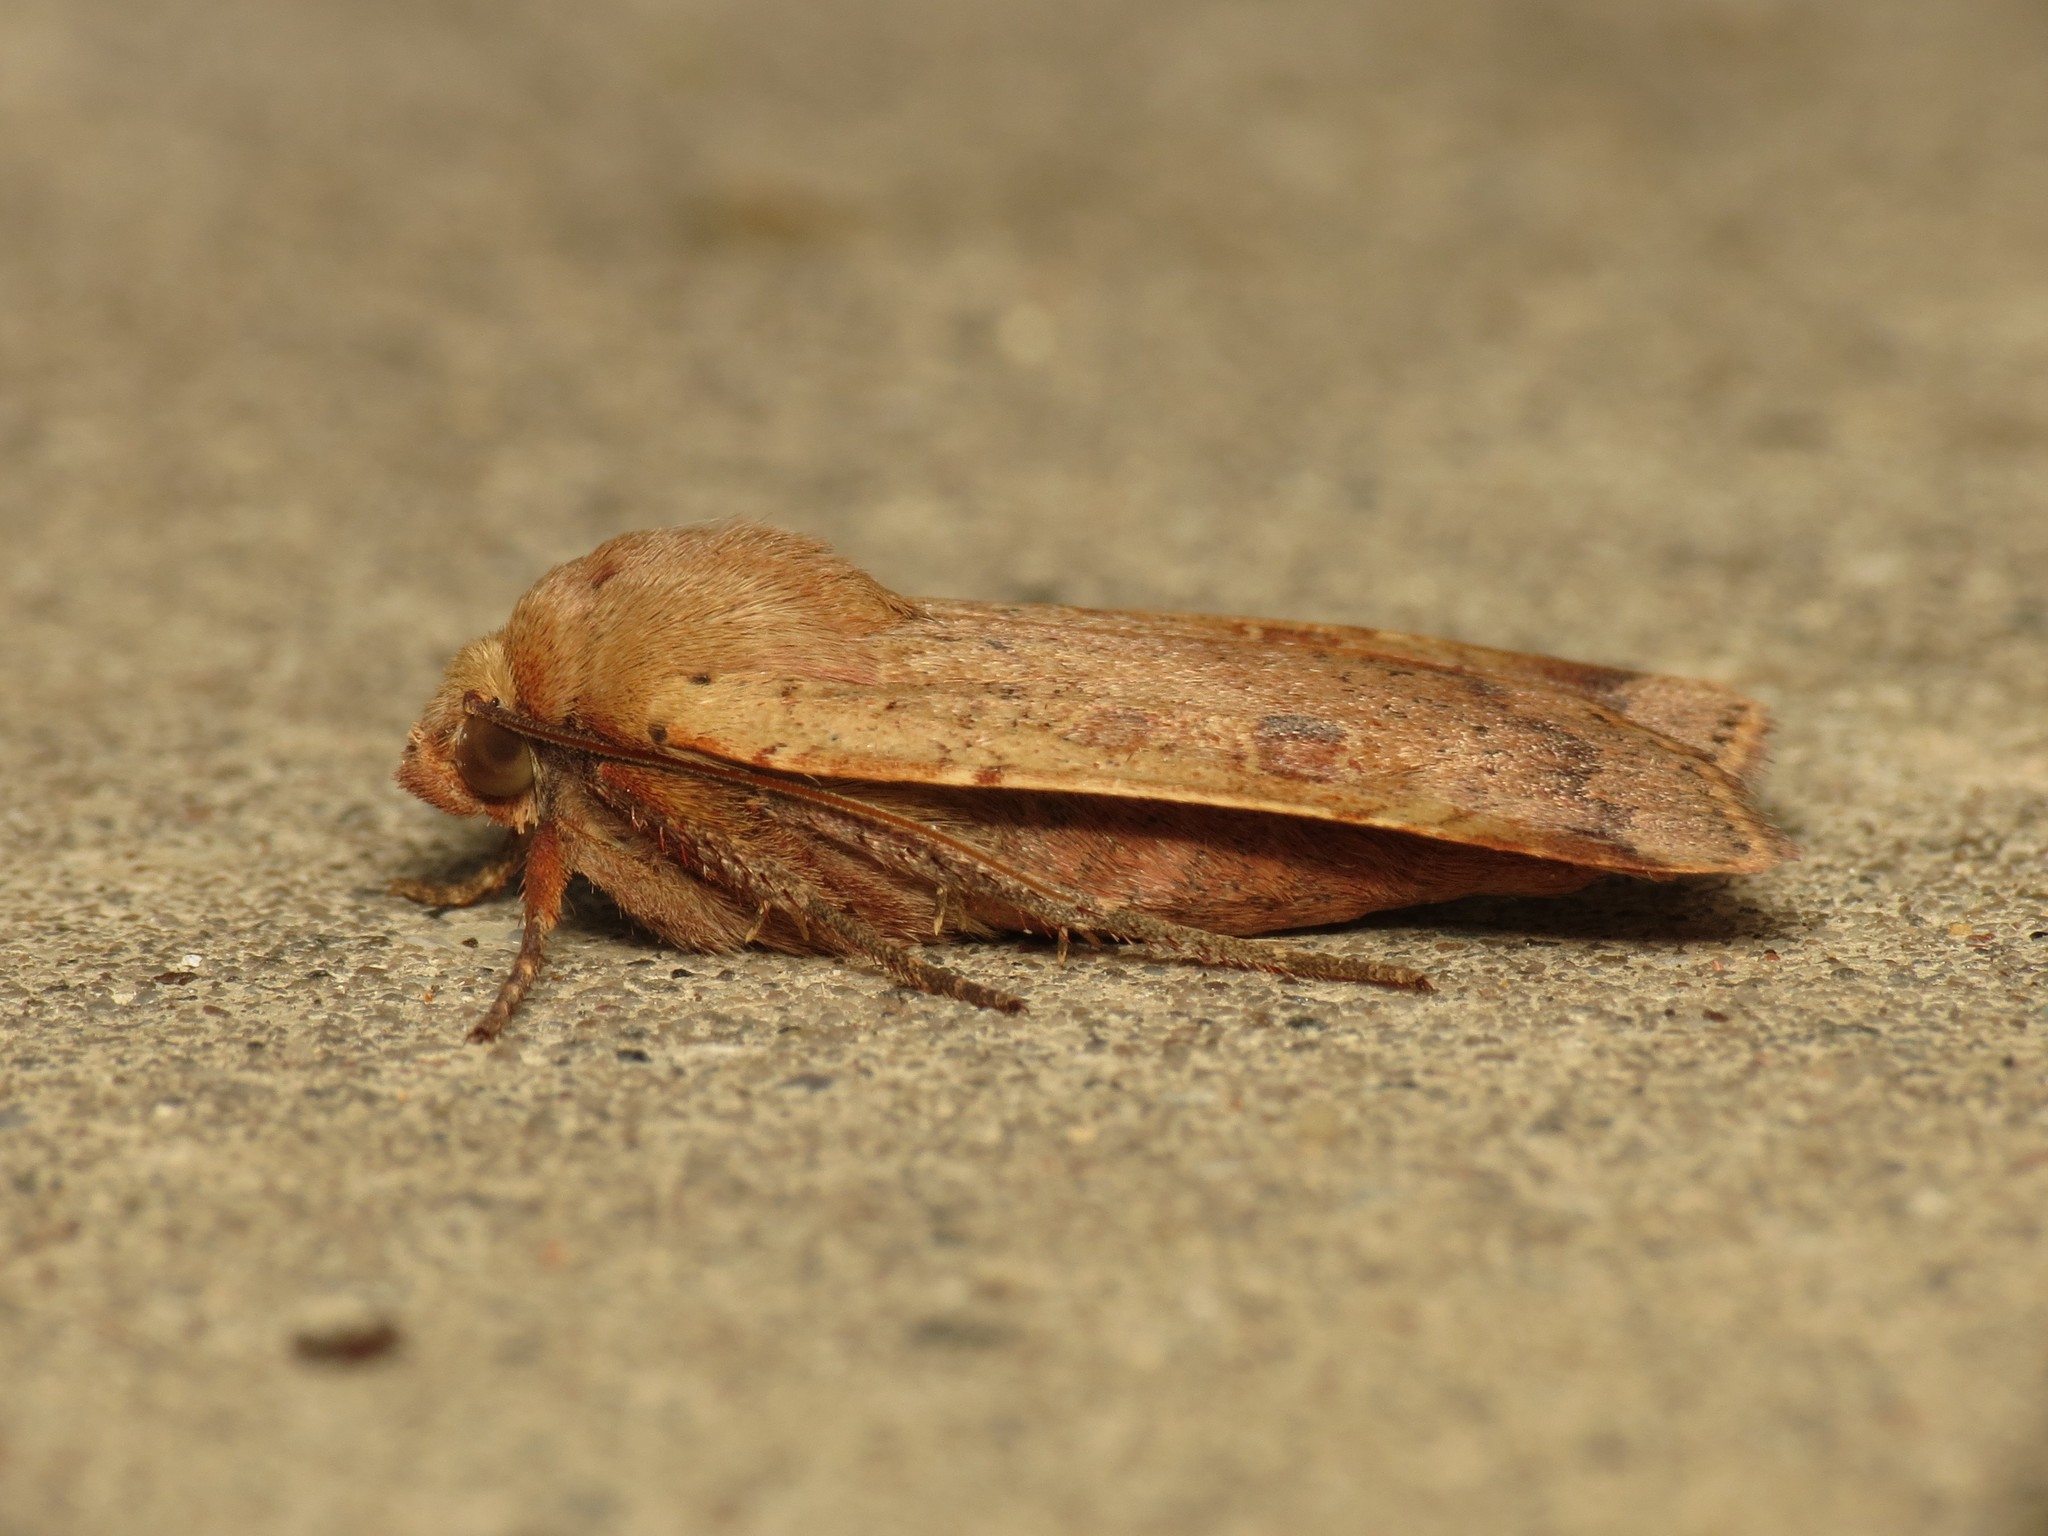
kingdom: Animalia
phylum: Arthropoda
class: Insecta
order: Lepidoptera
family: Noctuidae
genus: Noctua
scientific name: Noctua comes
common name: Lesser yellow underwing
